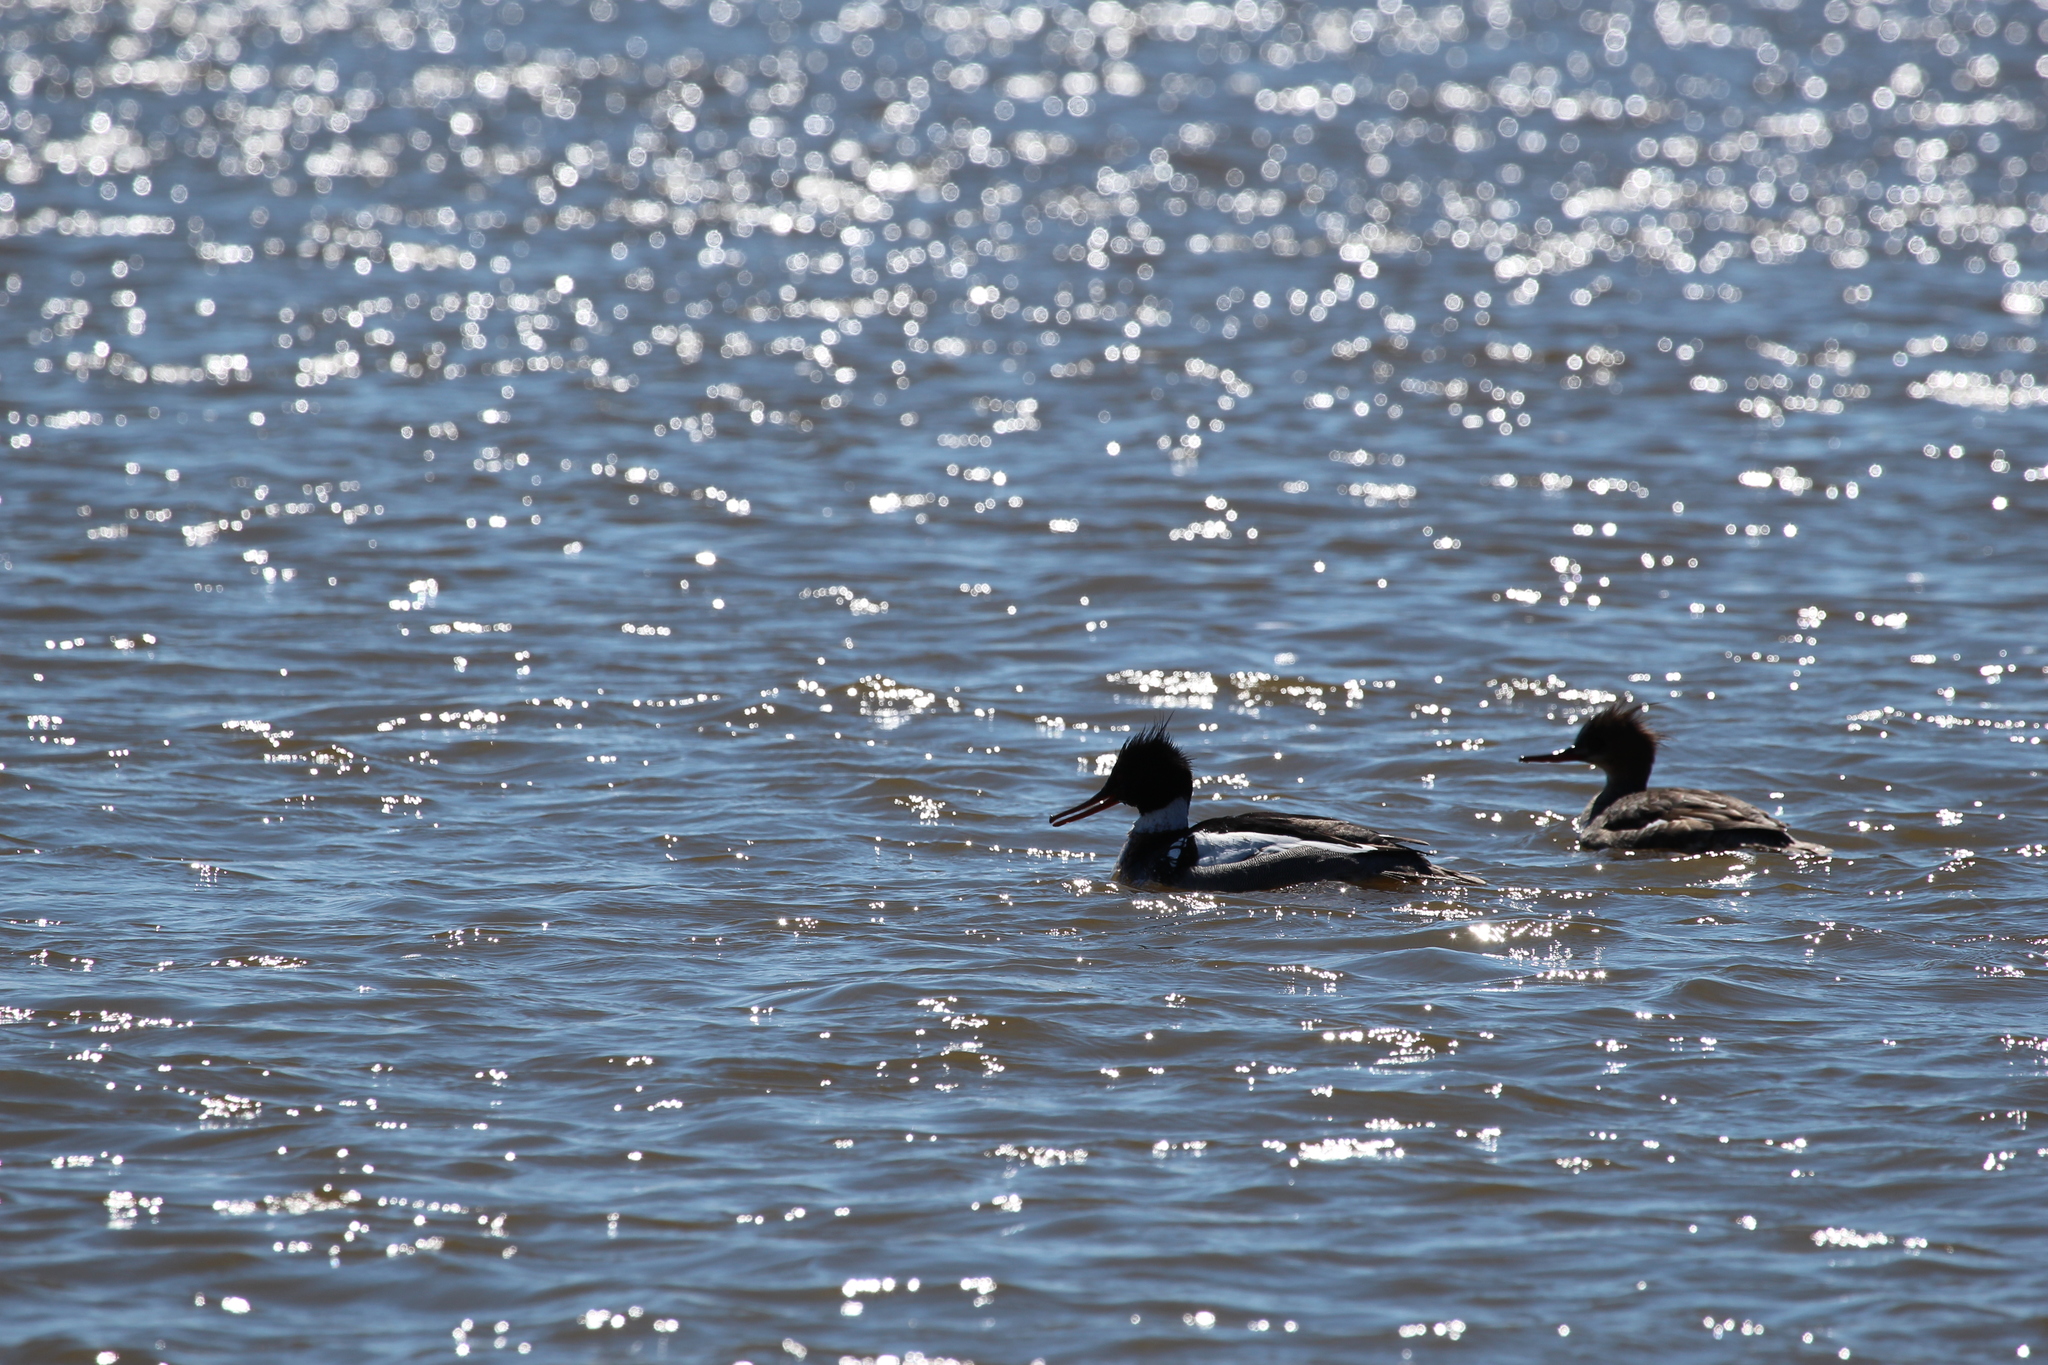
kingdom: Animalia
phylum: Chordata
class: Aves
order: Anseriformes
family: Anatidae
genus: Mergus
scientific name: Mergus serrator
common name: Red-breasted merganser
